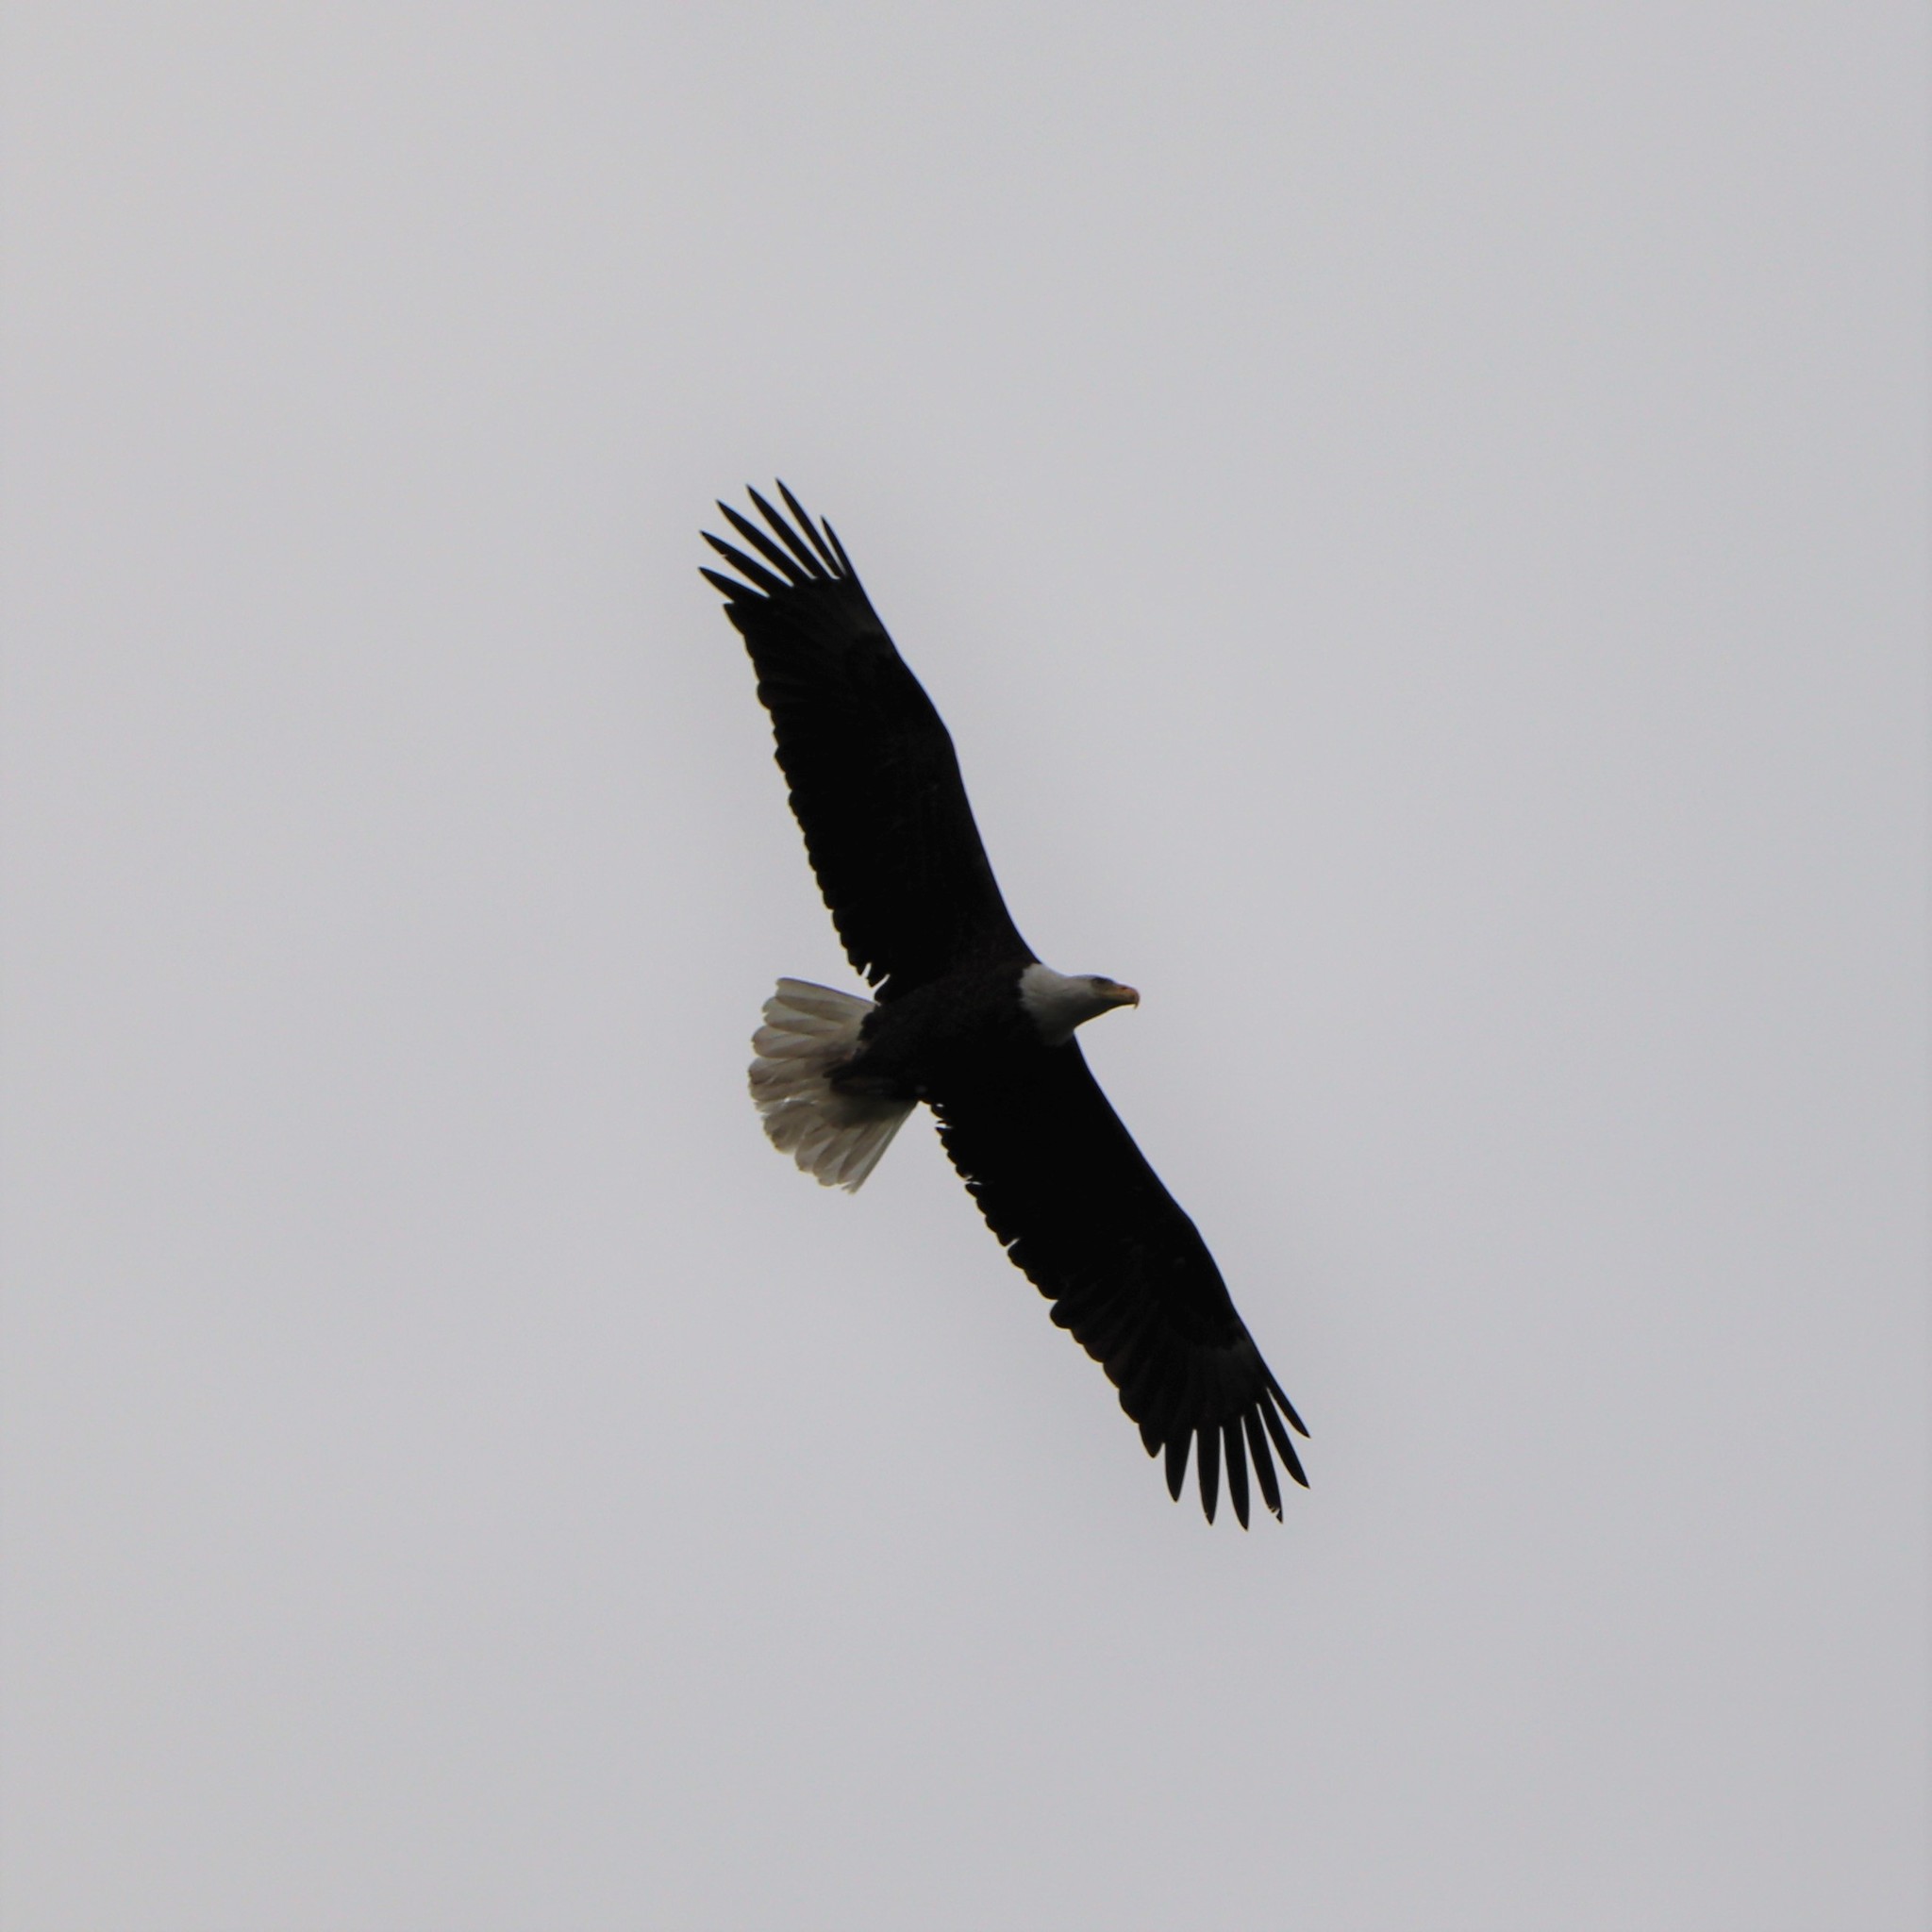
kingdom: Animalia
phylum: Chordata
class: Aves
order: Accipitriformes
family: Accipitridae
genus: Haliaeetus
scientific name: Haliaeetus leucocephalus
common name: Bald eagle
